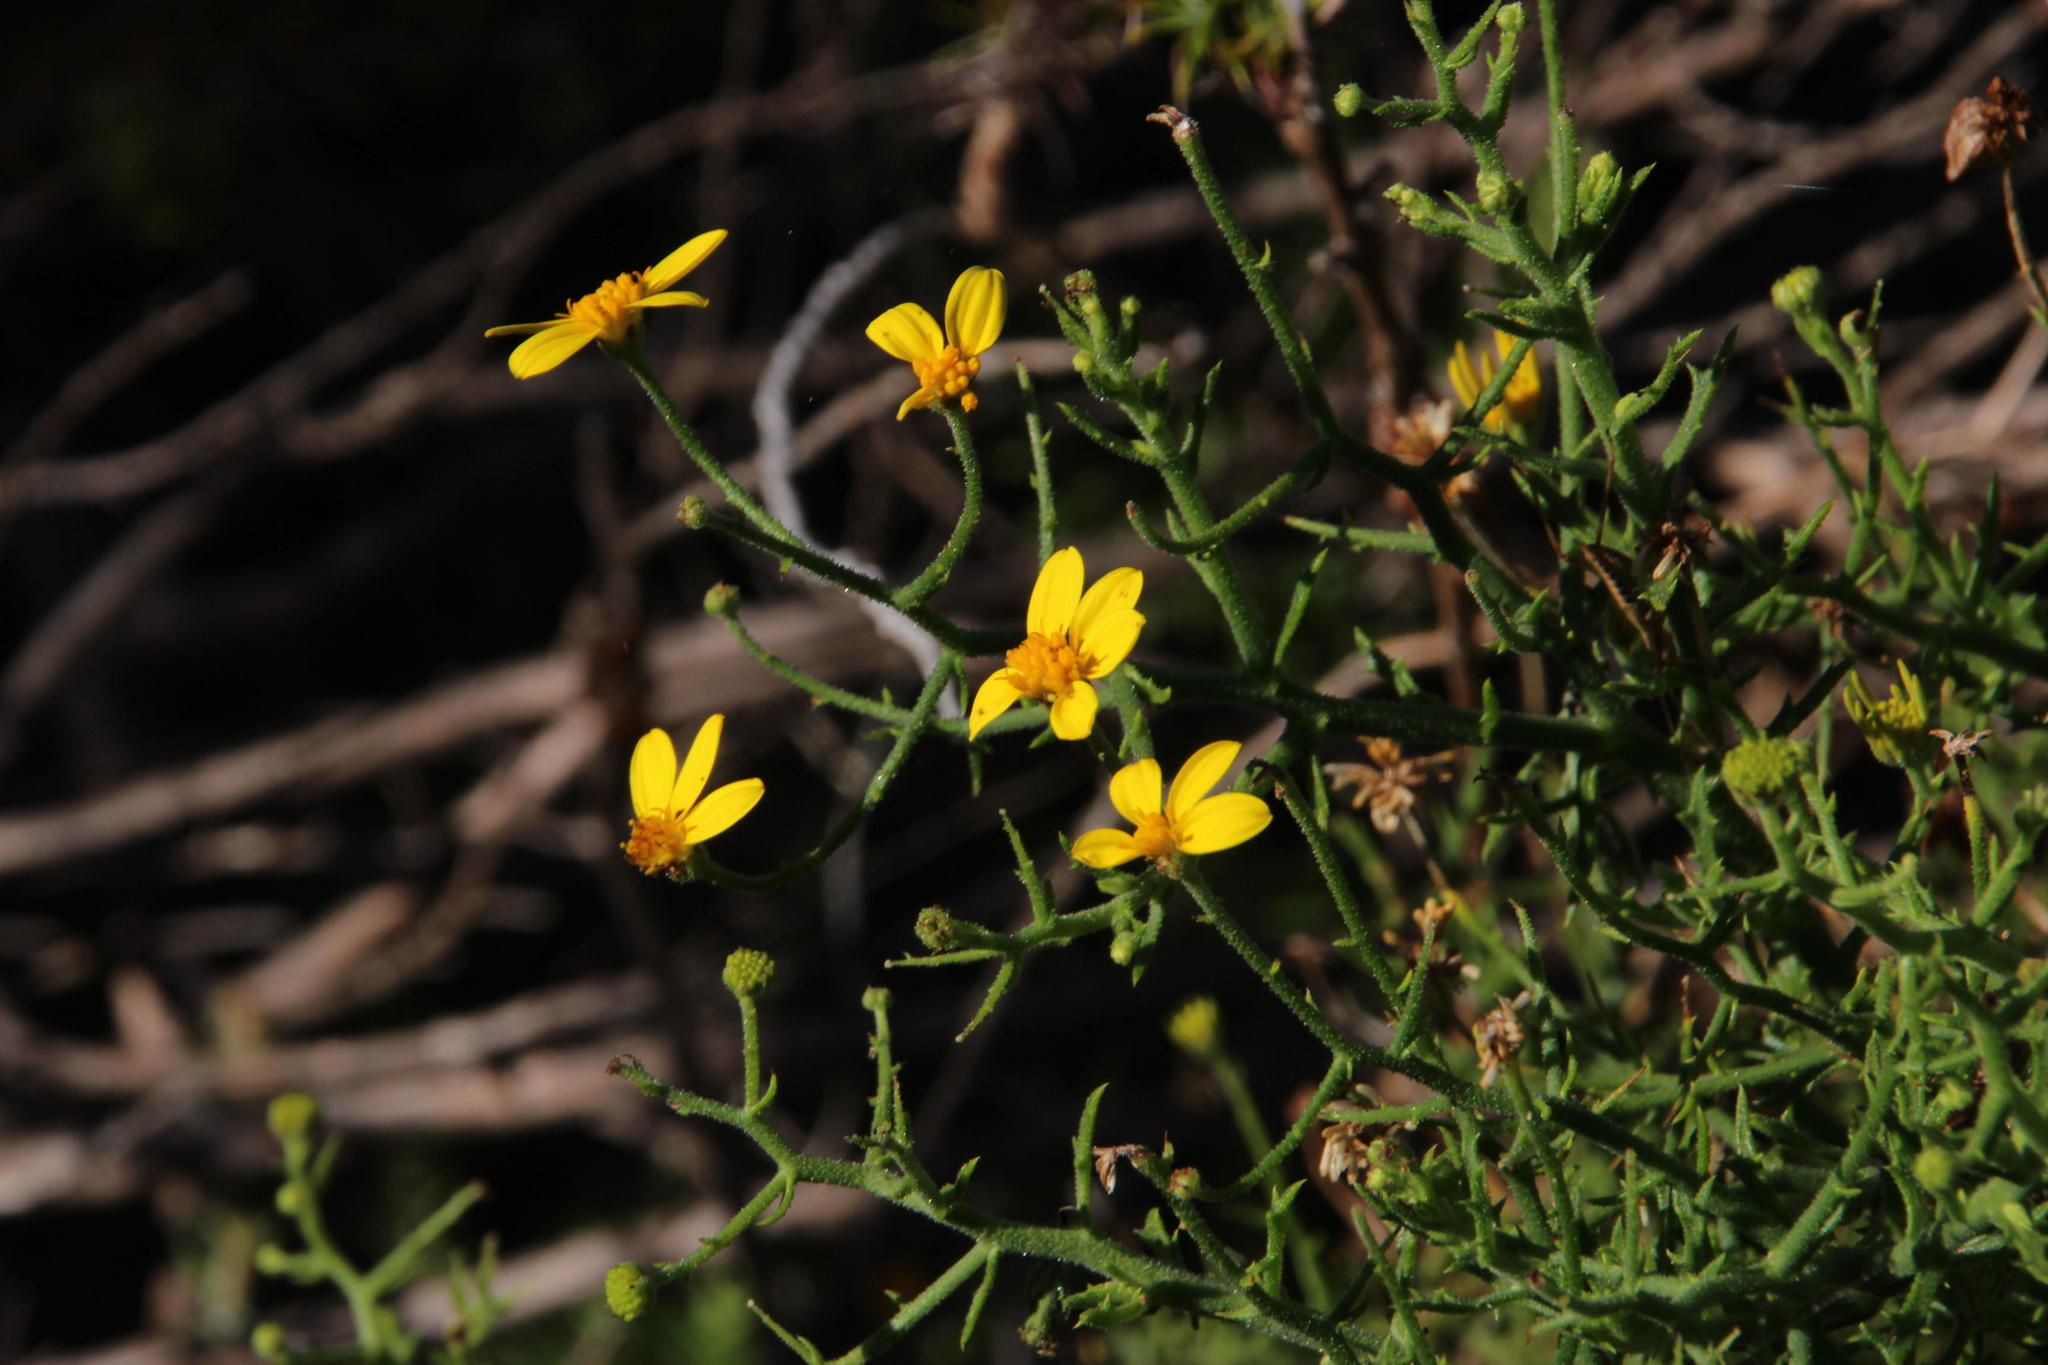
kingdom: Plantae
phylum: Tracheophyta
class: Magnoliopsida
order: Asterales
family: Asteraceae
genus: Osteospermum
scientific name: Osteospermum spinosum
